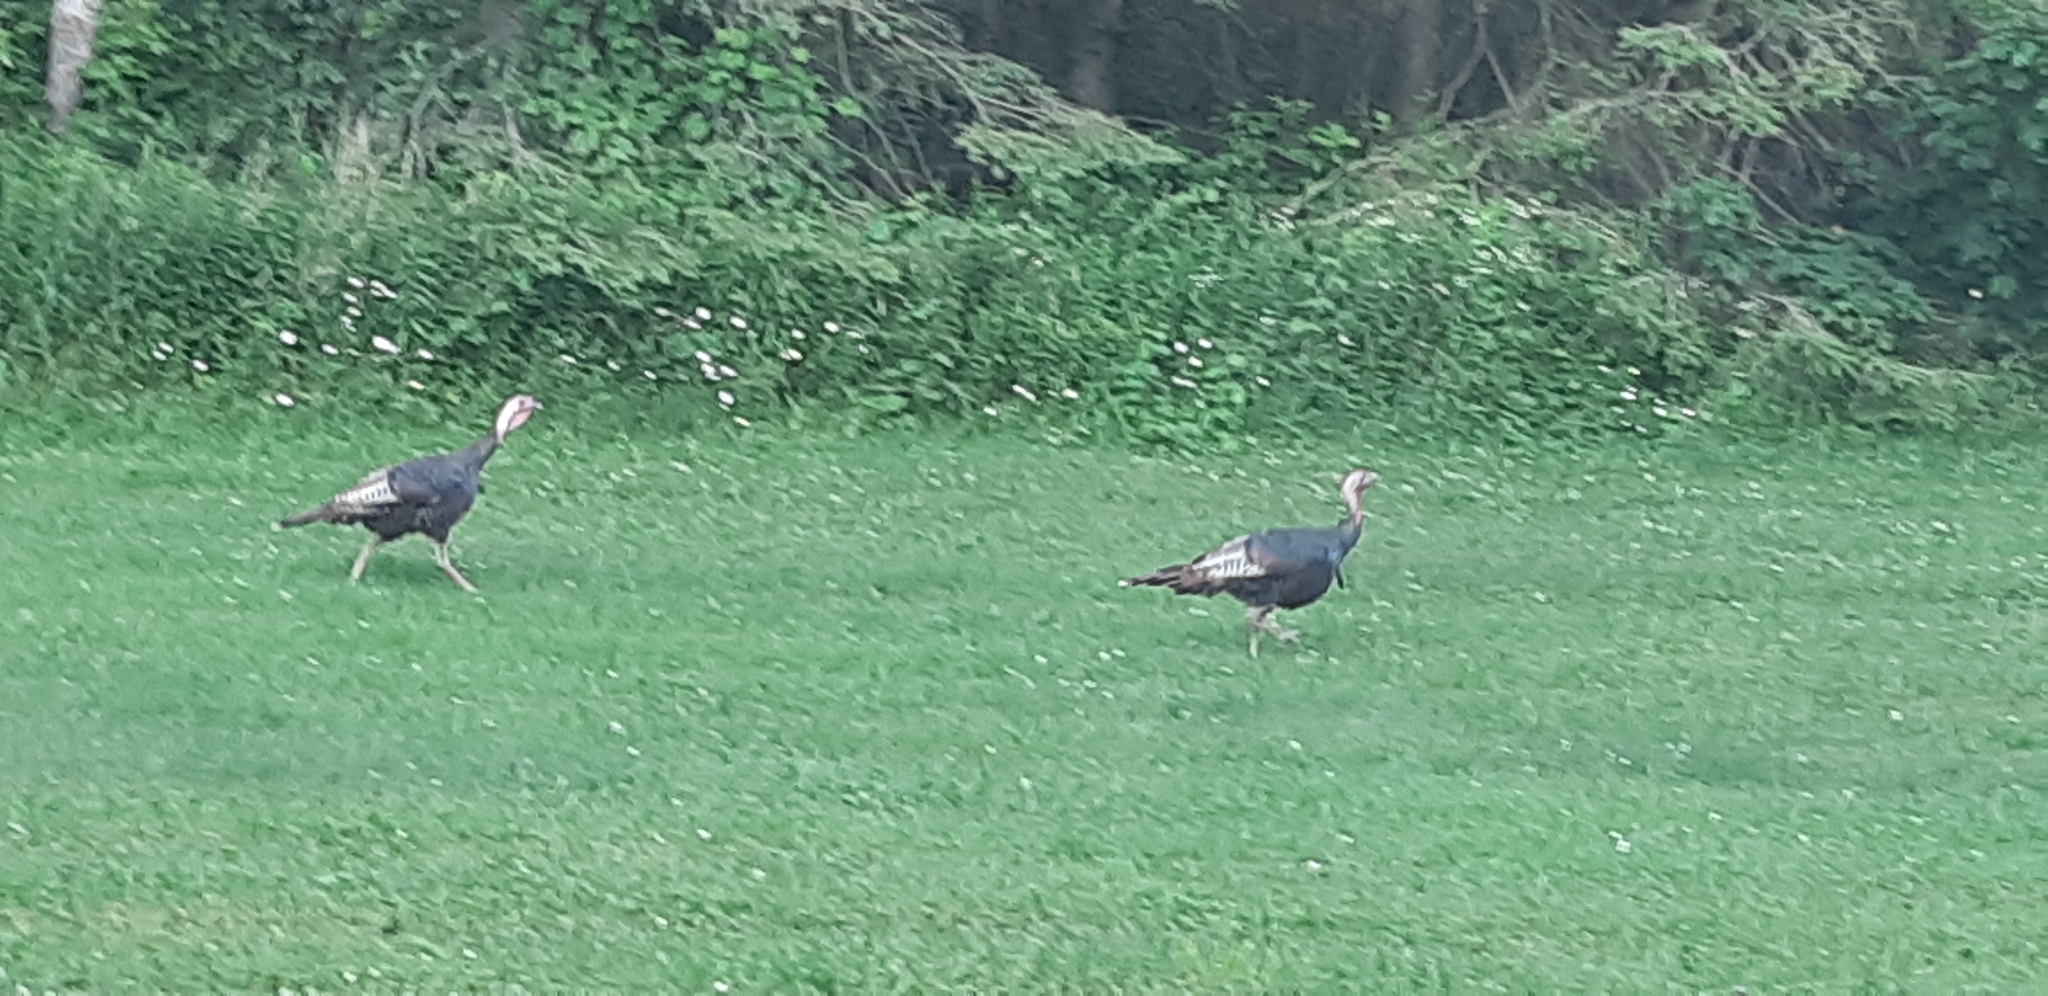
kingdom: Animalia
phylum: Chordata
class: Aves
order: Galliformes
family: Phasianidae
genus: Meleagris
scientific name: Meleagris gallopavo
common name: Wild turkey
